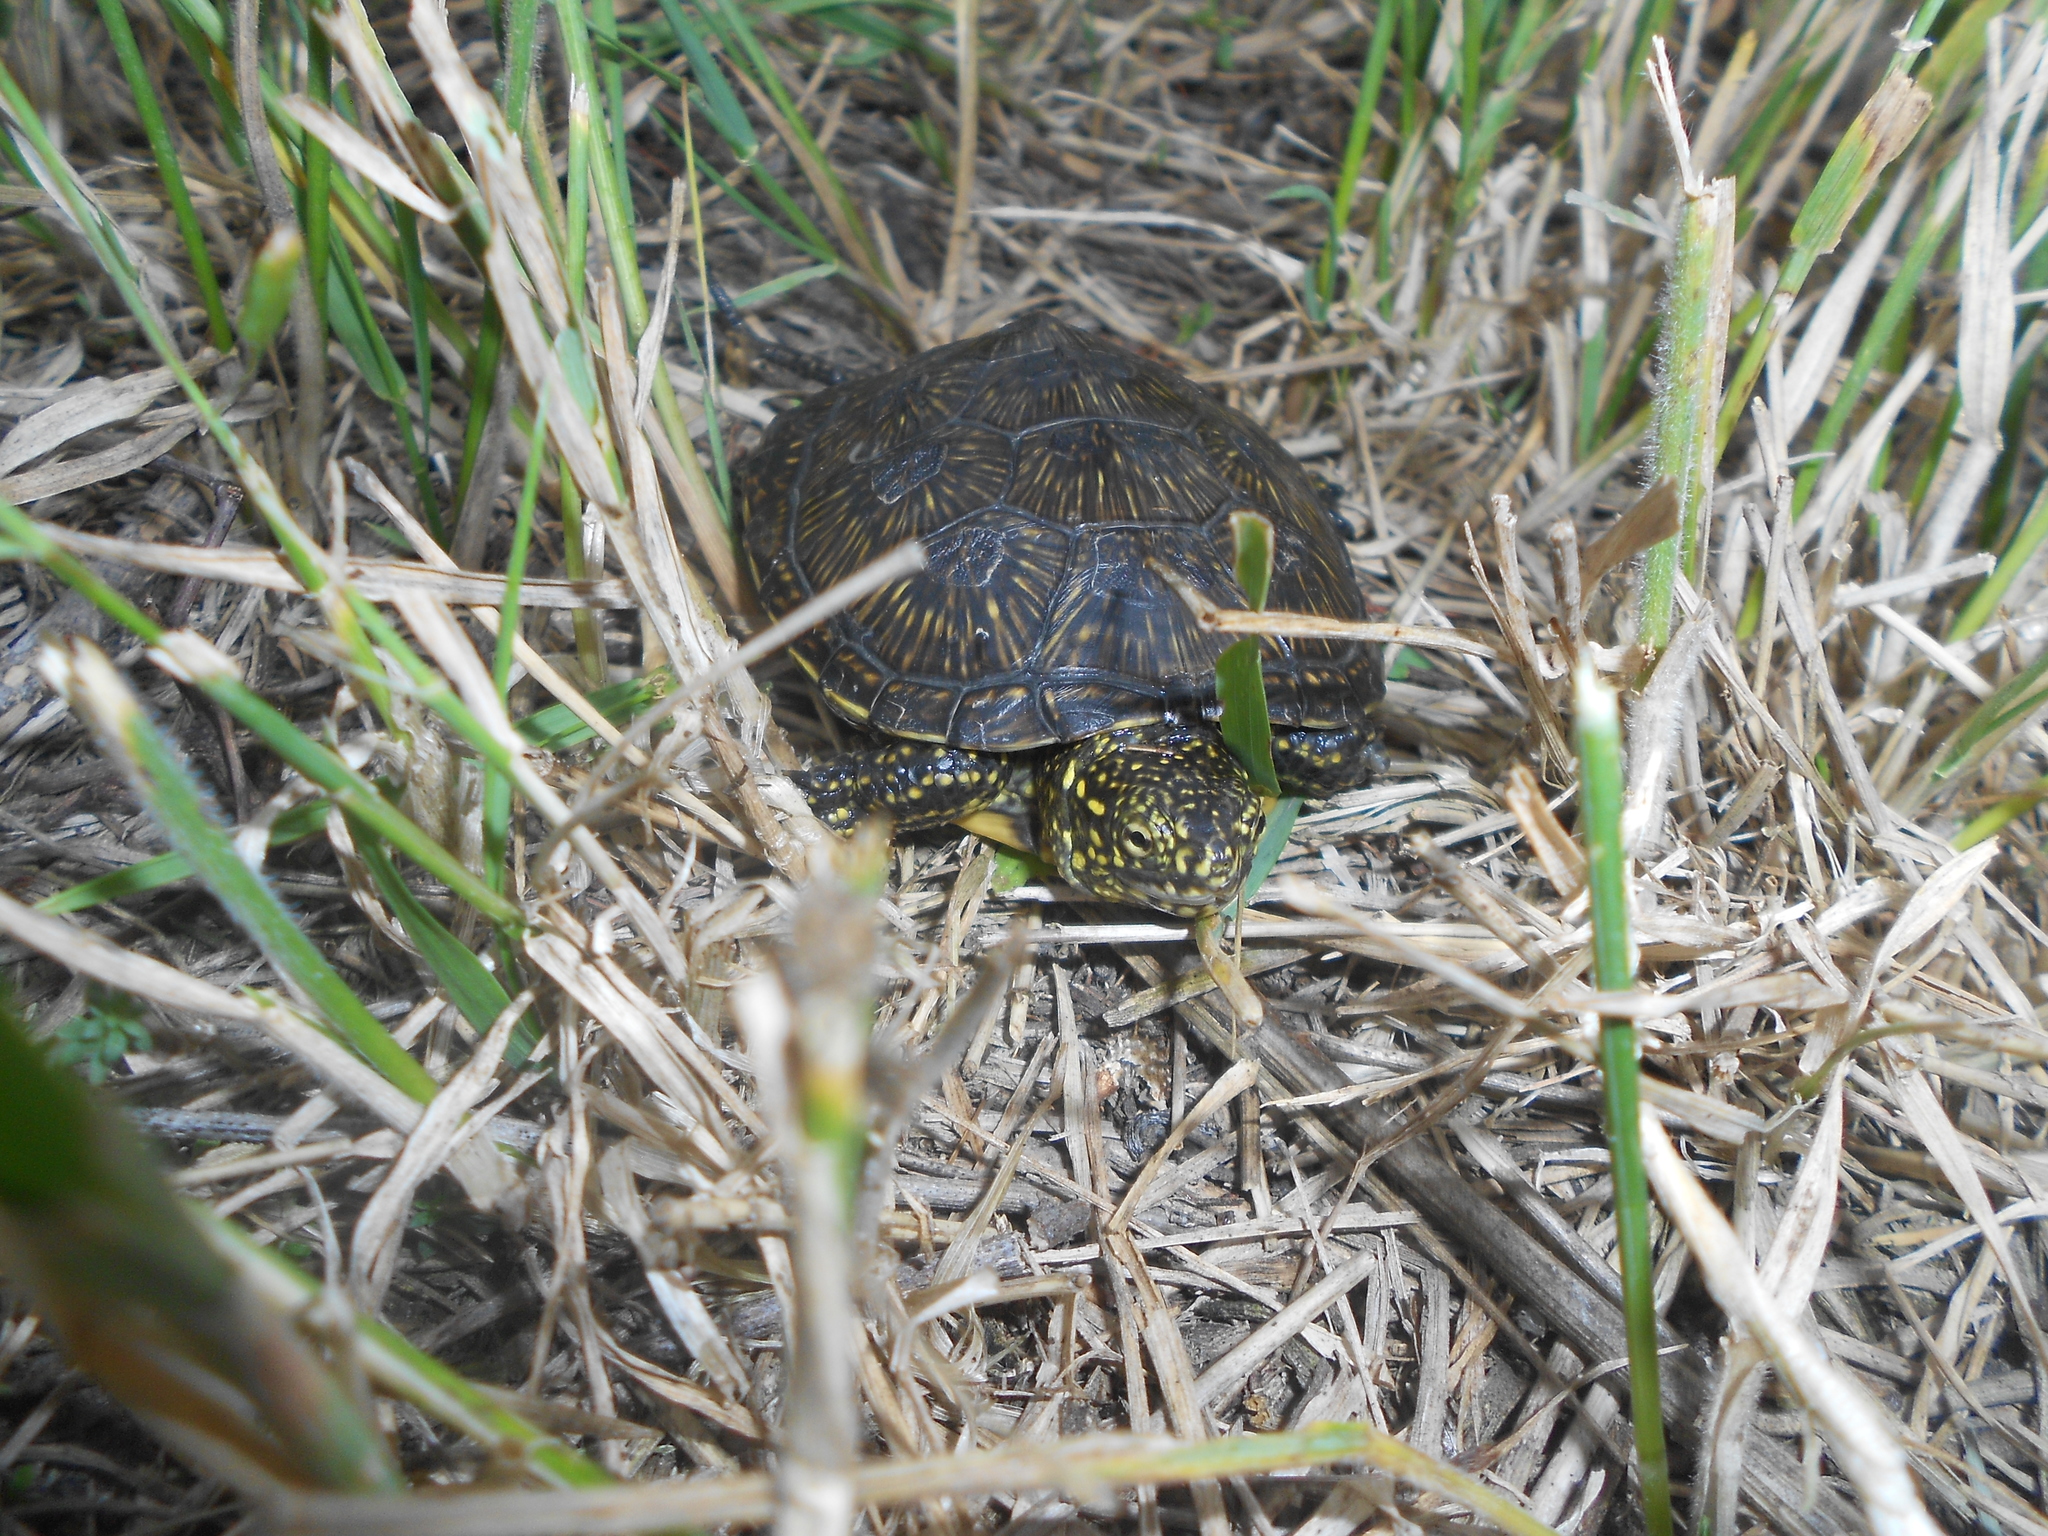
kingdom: Animalia
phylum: Chordata
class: Testudines
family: Emydidae
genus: Emys
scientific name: Emys orbicularis
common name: European pond turtle
